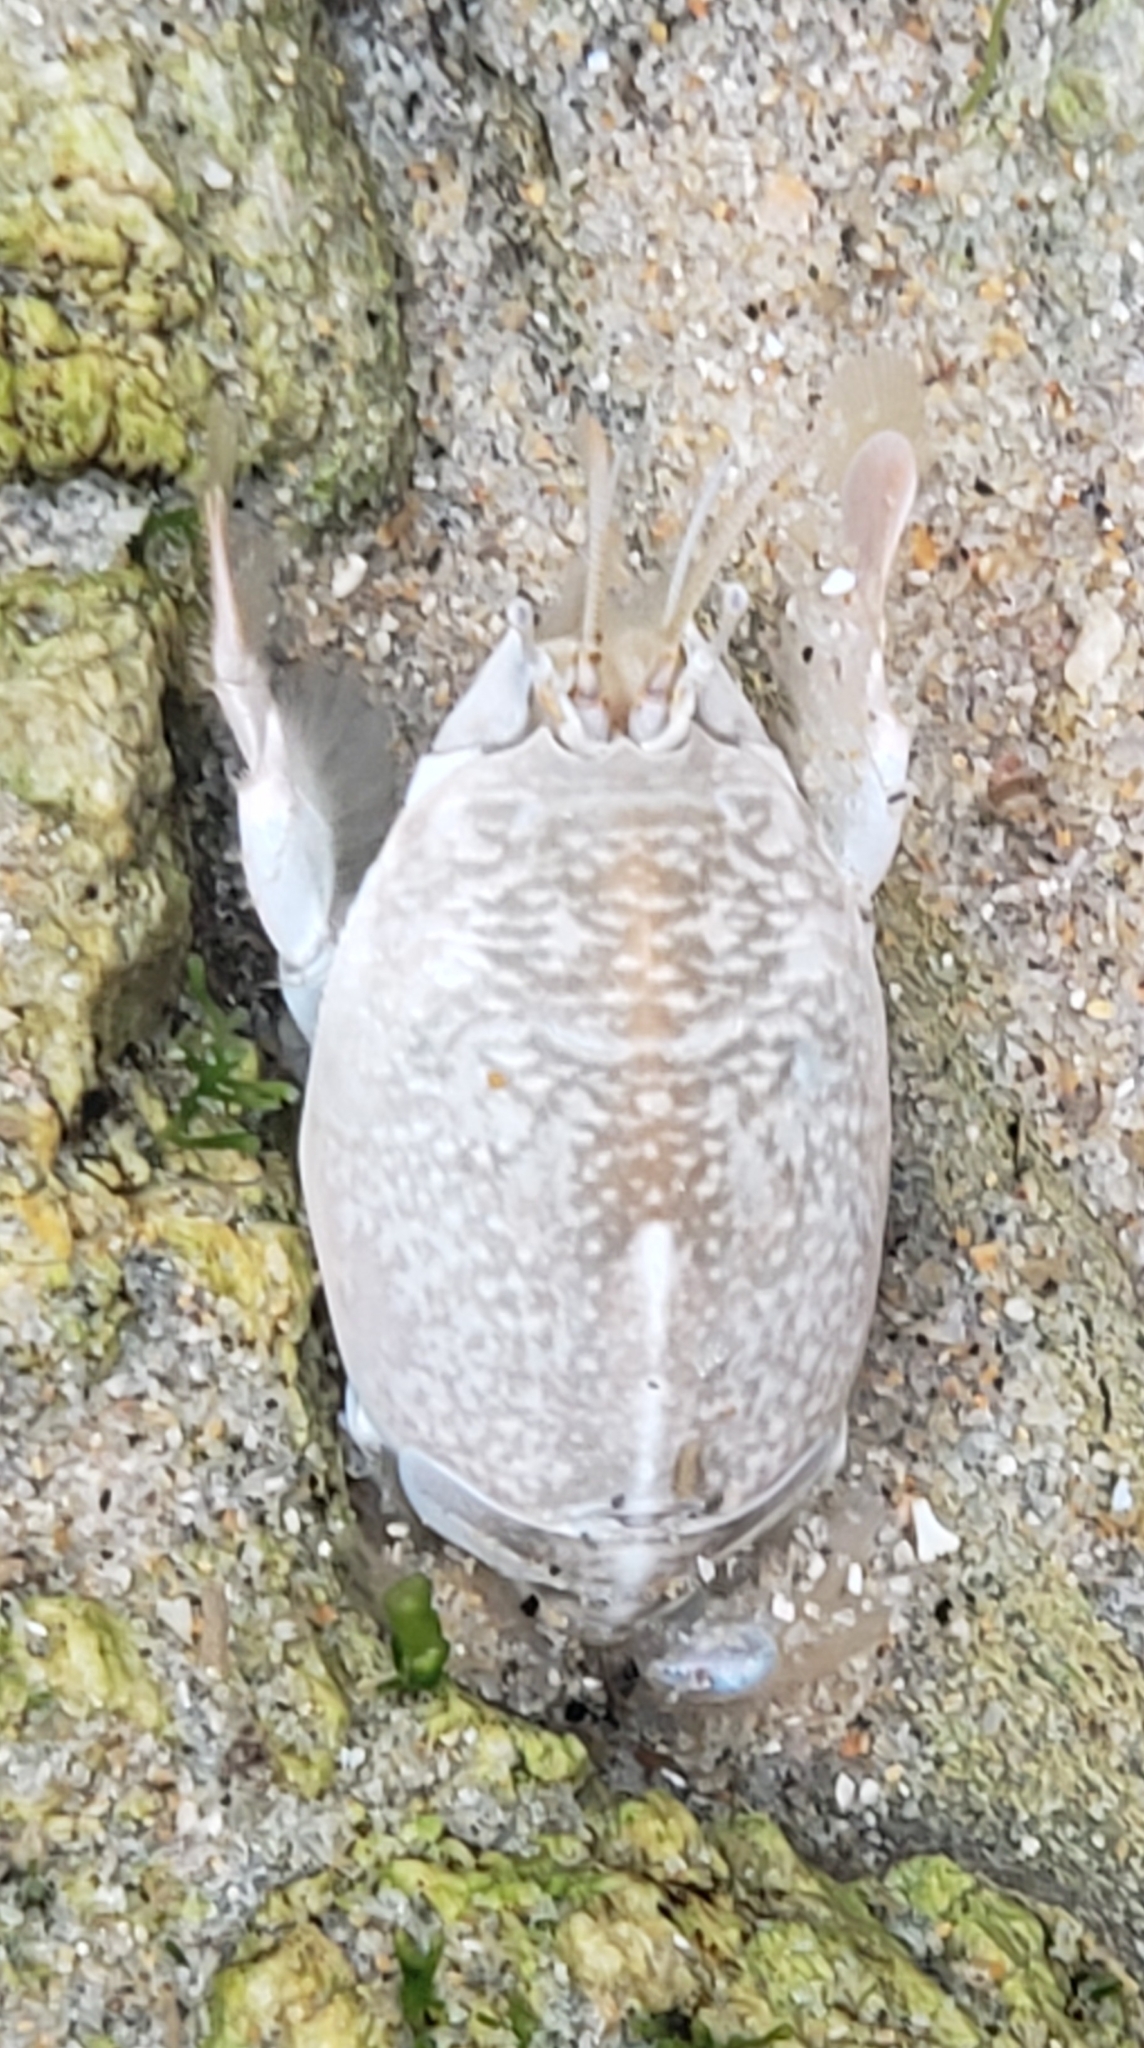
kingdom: Animalia
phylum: Arthropoda
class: Malacostraca
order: Decapoda
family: Hippidae
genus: Emerita
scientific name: Emerita analoga
